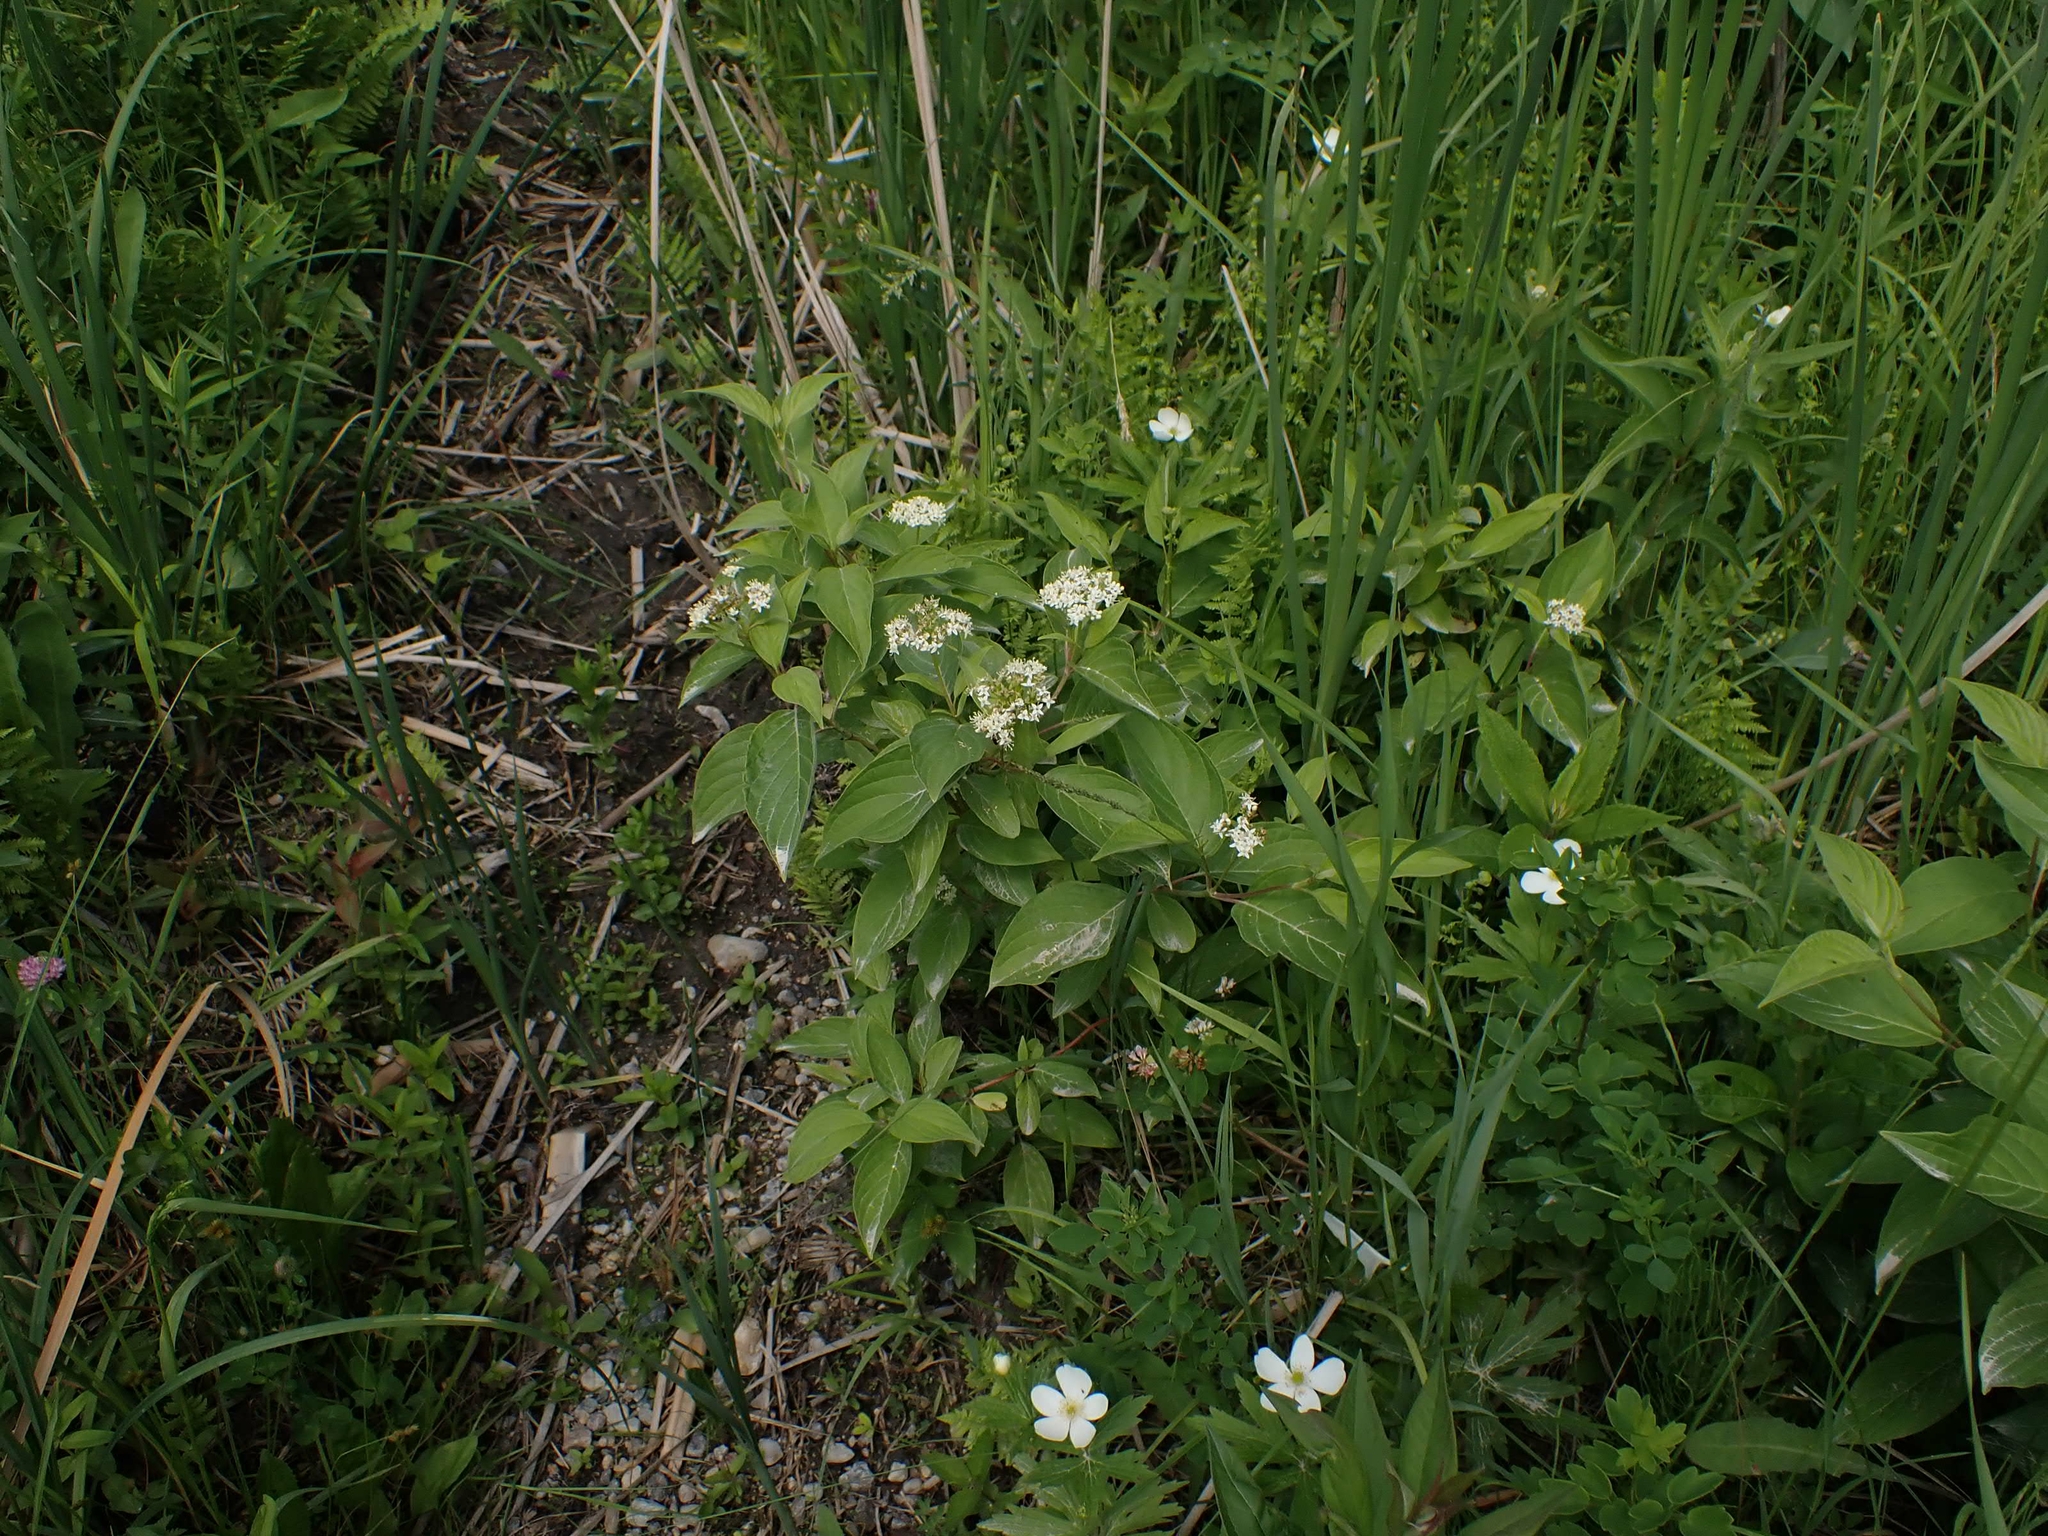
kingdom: Plantae
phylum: Tracheophyta
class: Magnoliopsida
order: Cornales
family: Cornaceae
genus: Cornus
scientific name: Cornus sericea
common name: Red-osier dogwood
